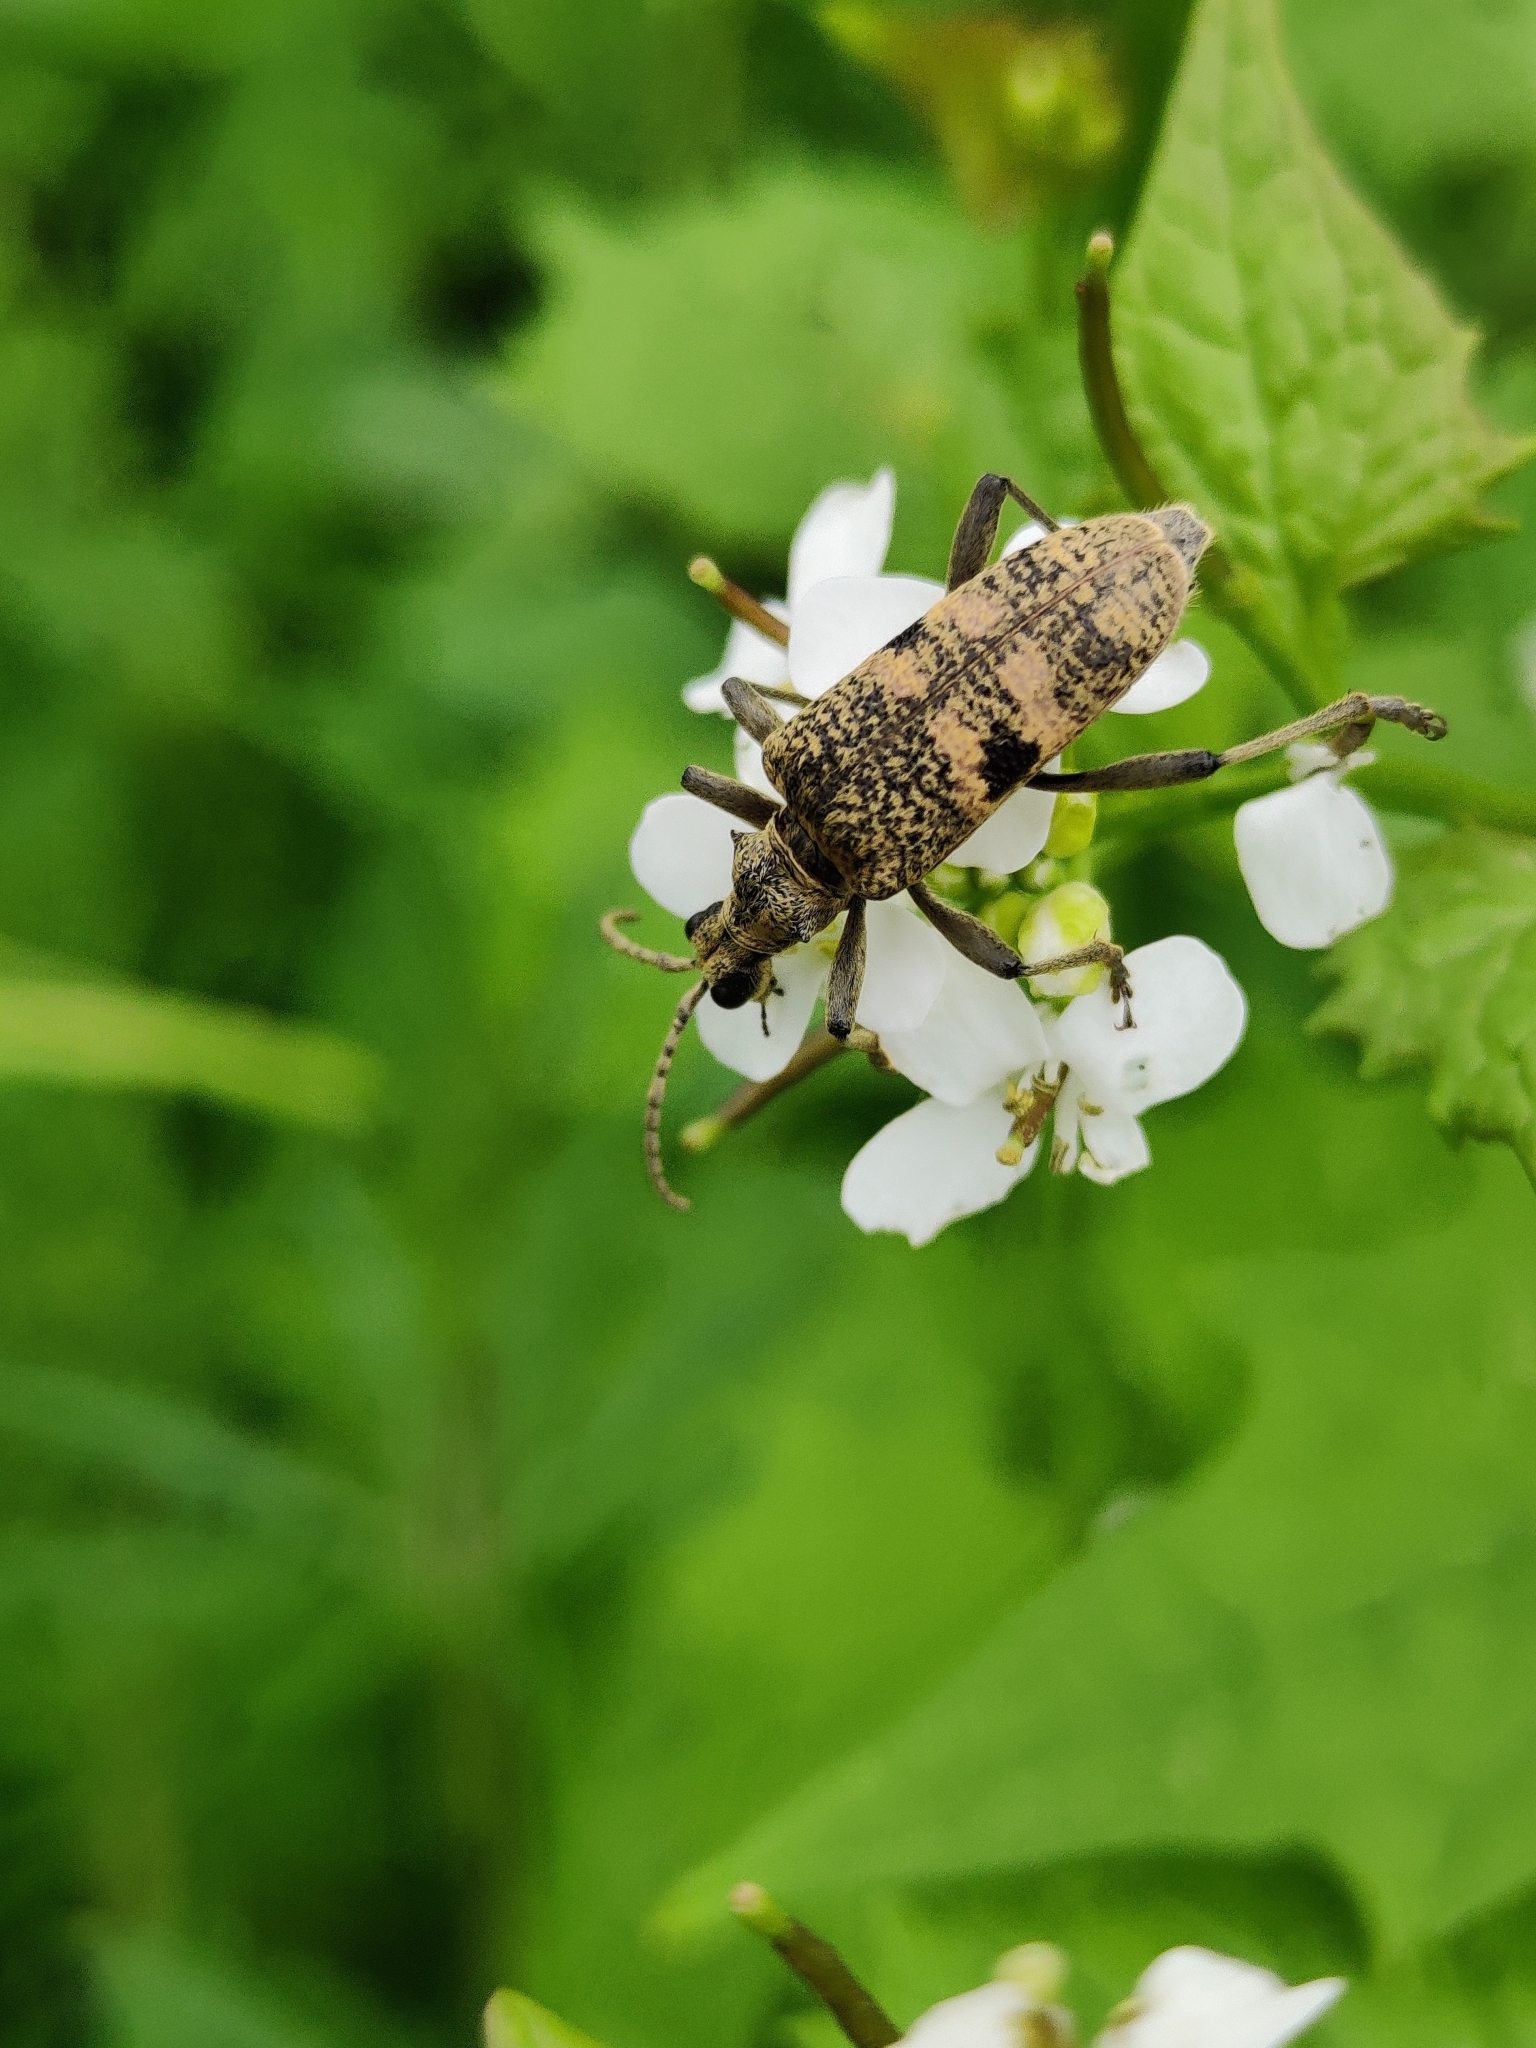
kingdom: Animalia
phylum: Arthropoda
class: Insecta
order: Coleoptera
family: Cerambycidae
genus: Rhagium
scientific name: Rhagium mordax
